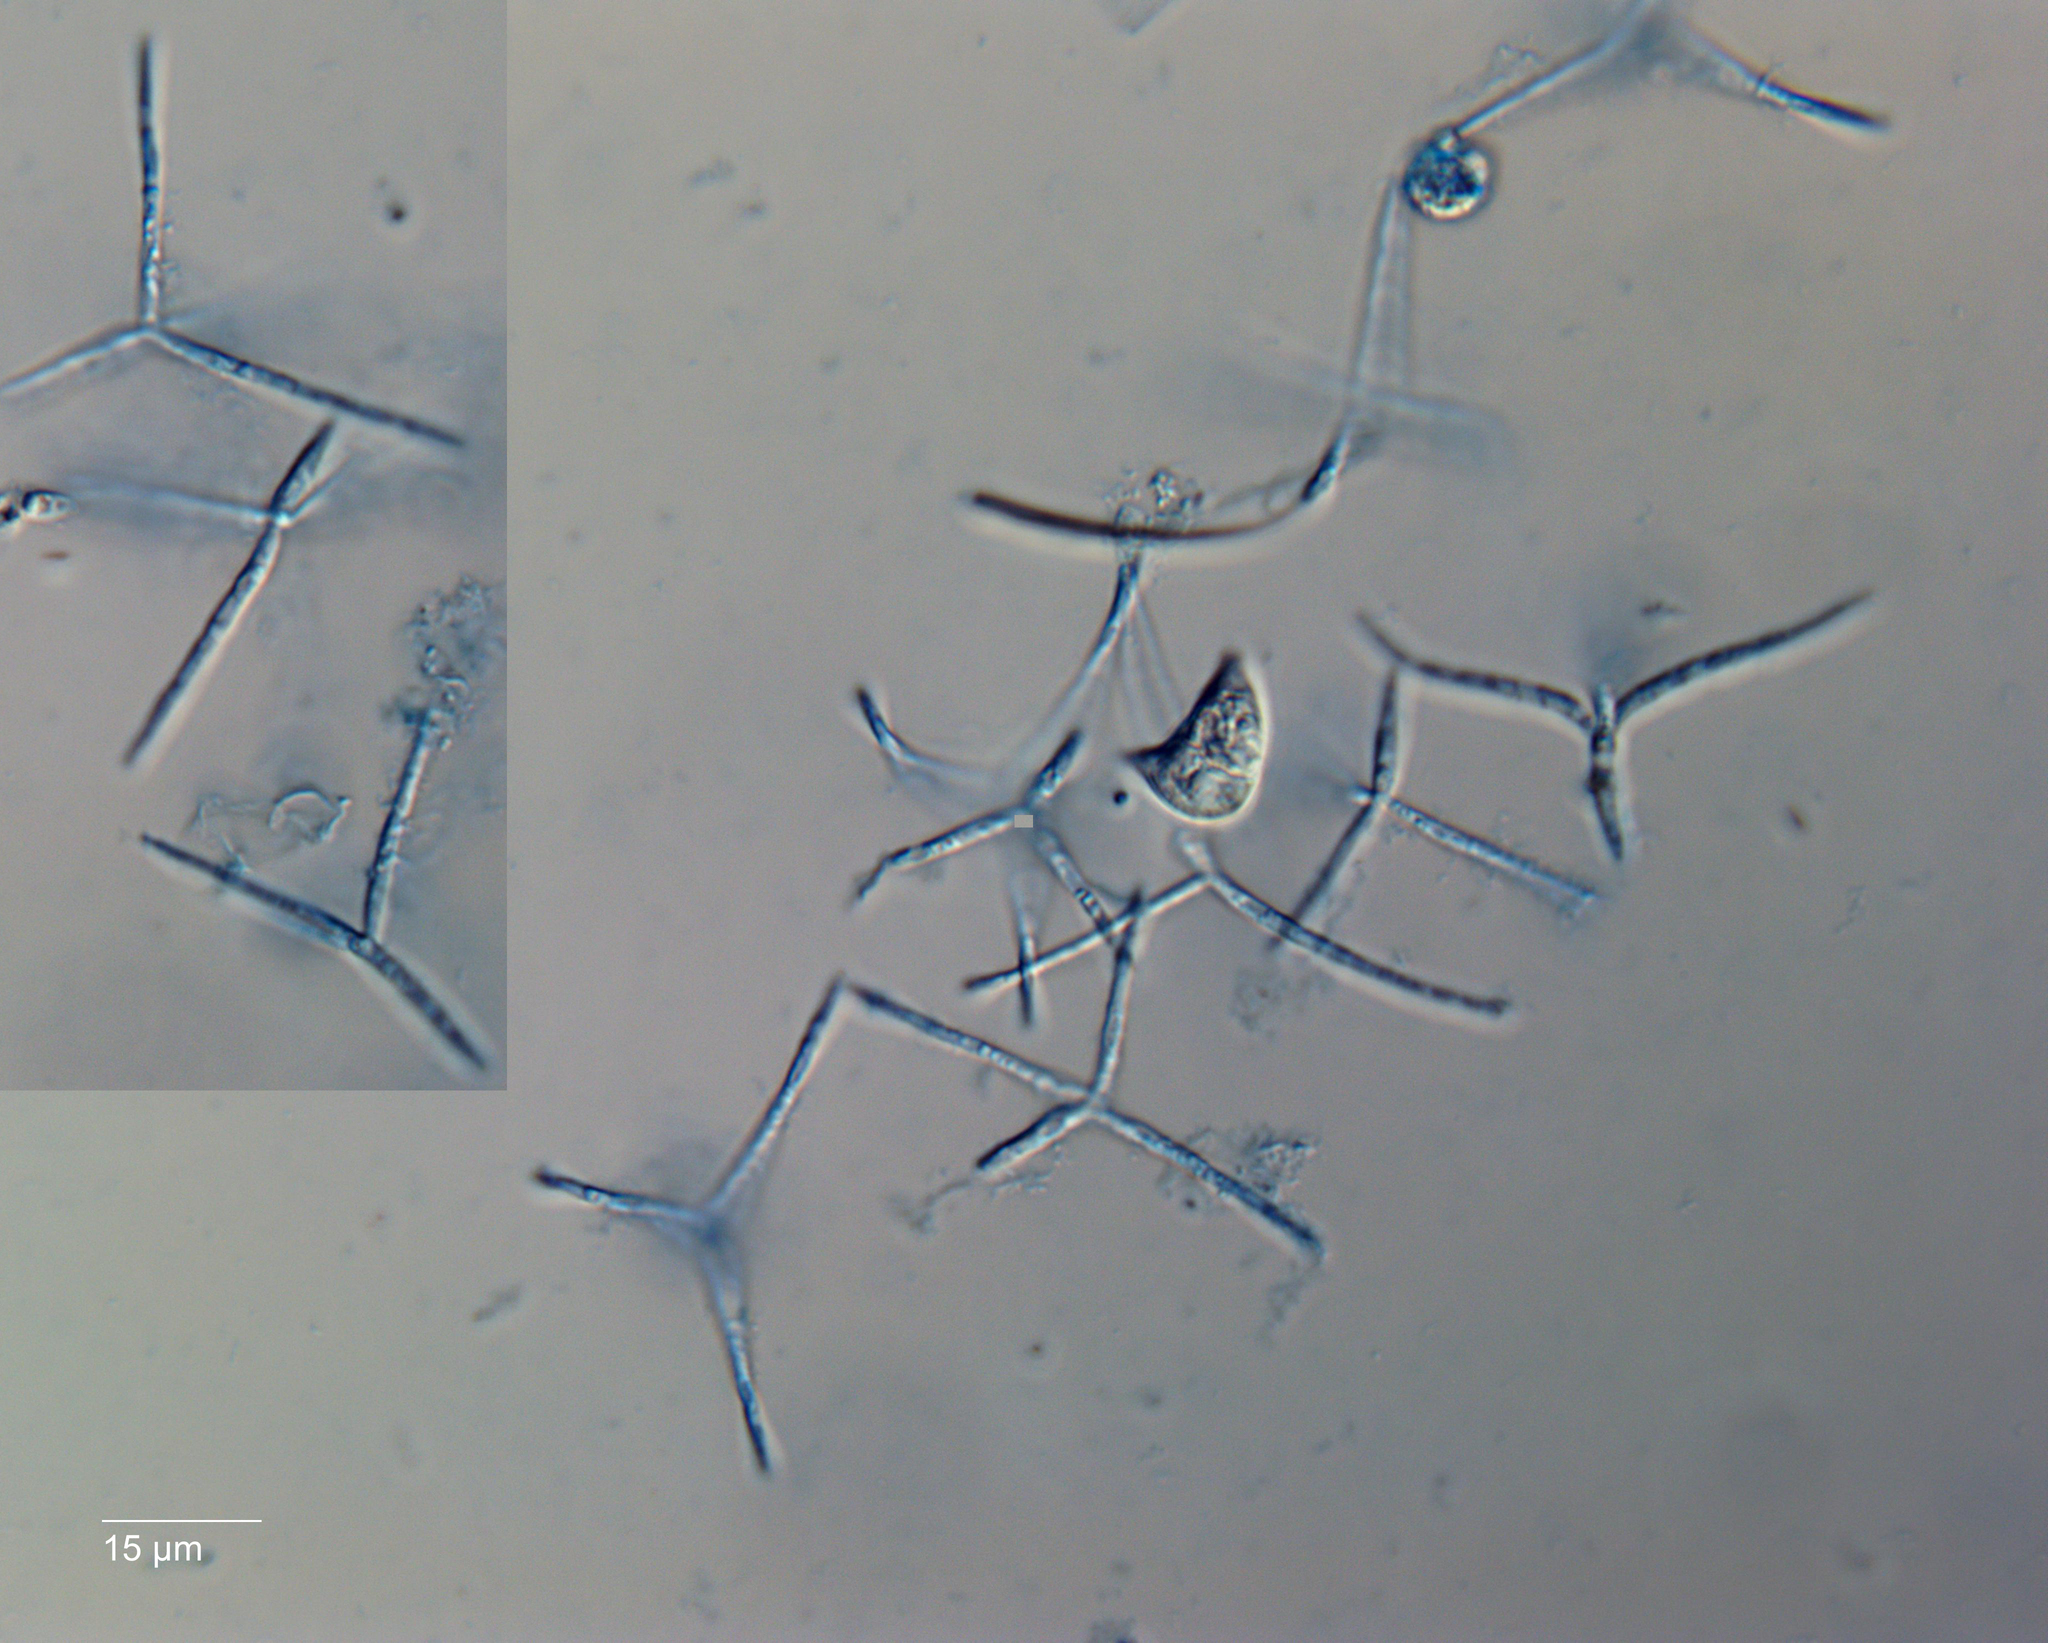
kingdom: Fungi
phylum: Ascomycota
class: Leotiomycetes
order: Helotiales
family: Discinellaceae
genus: Lemonniera
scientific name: Lemonniera aquatica
